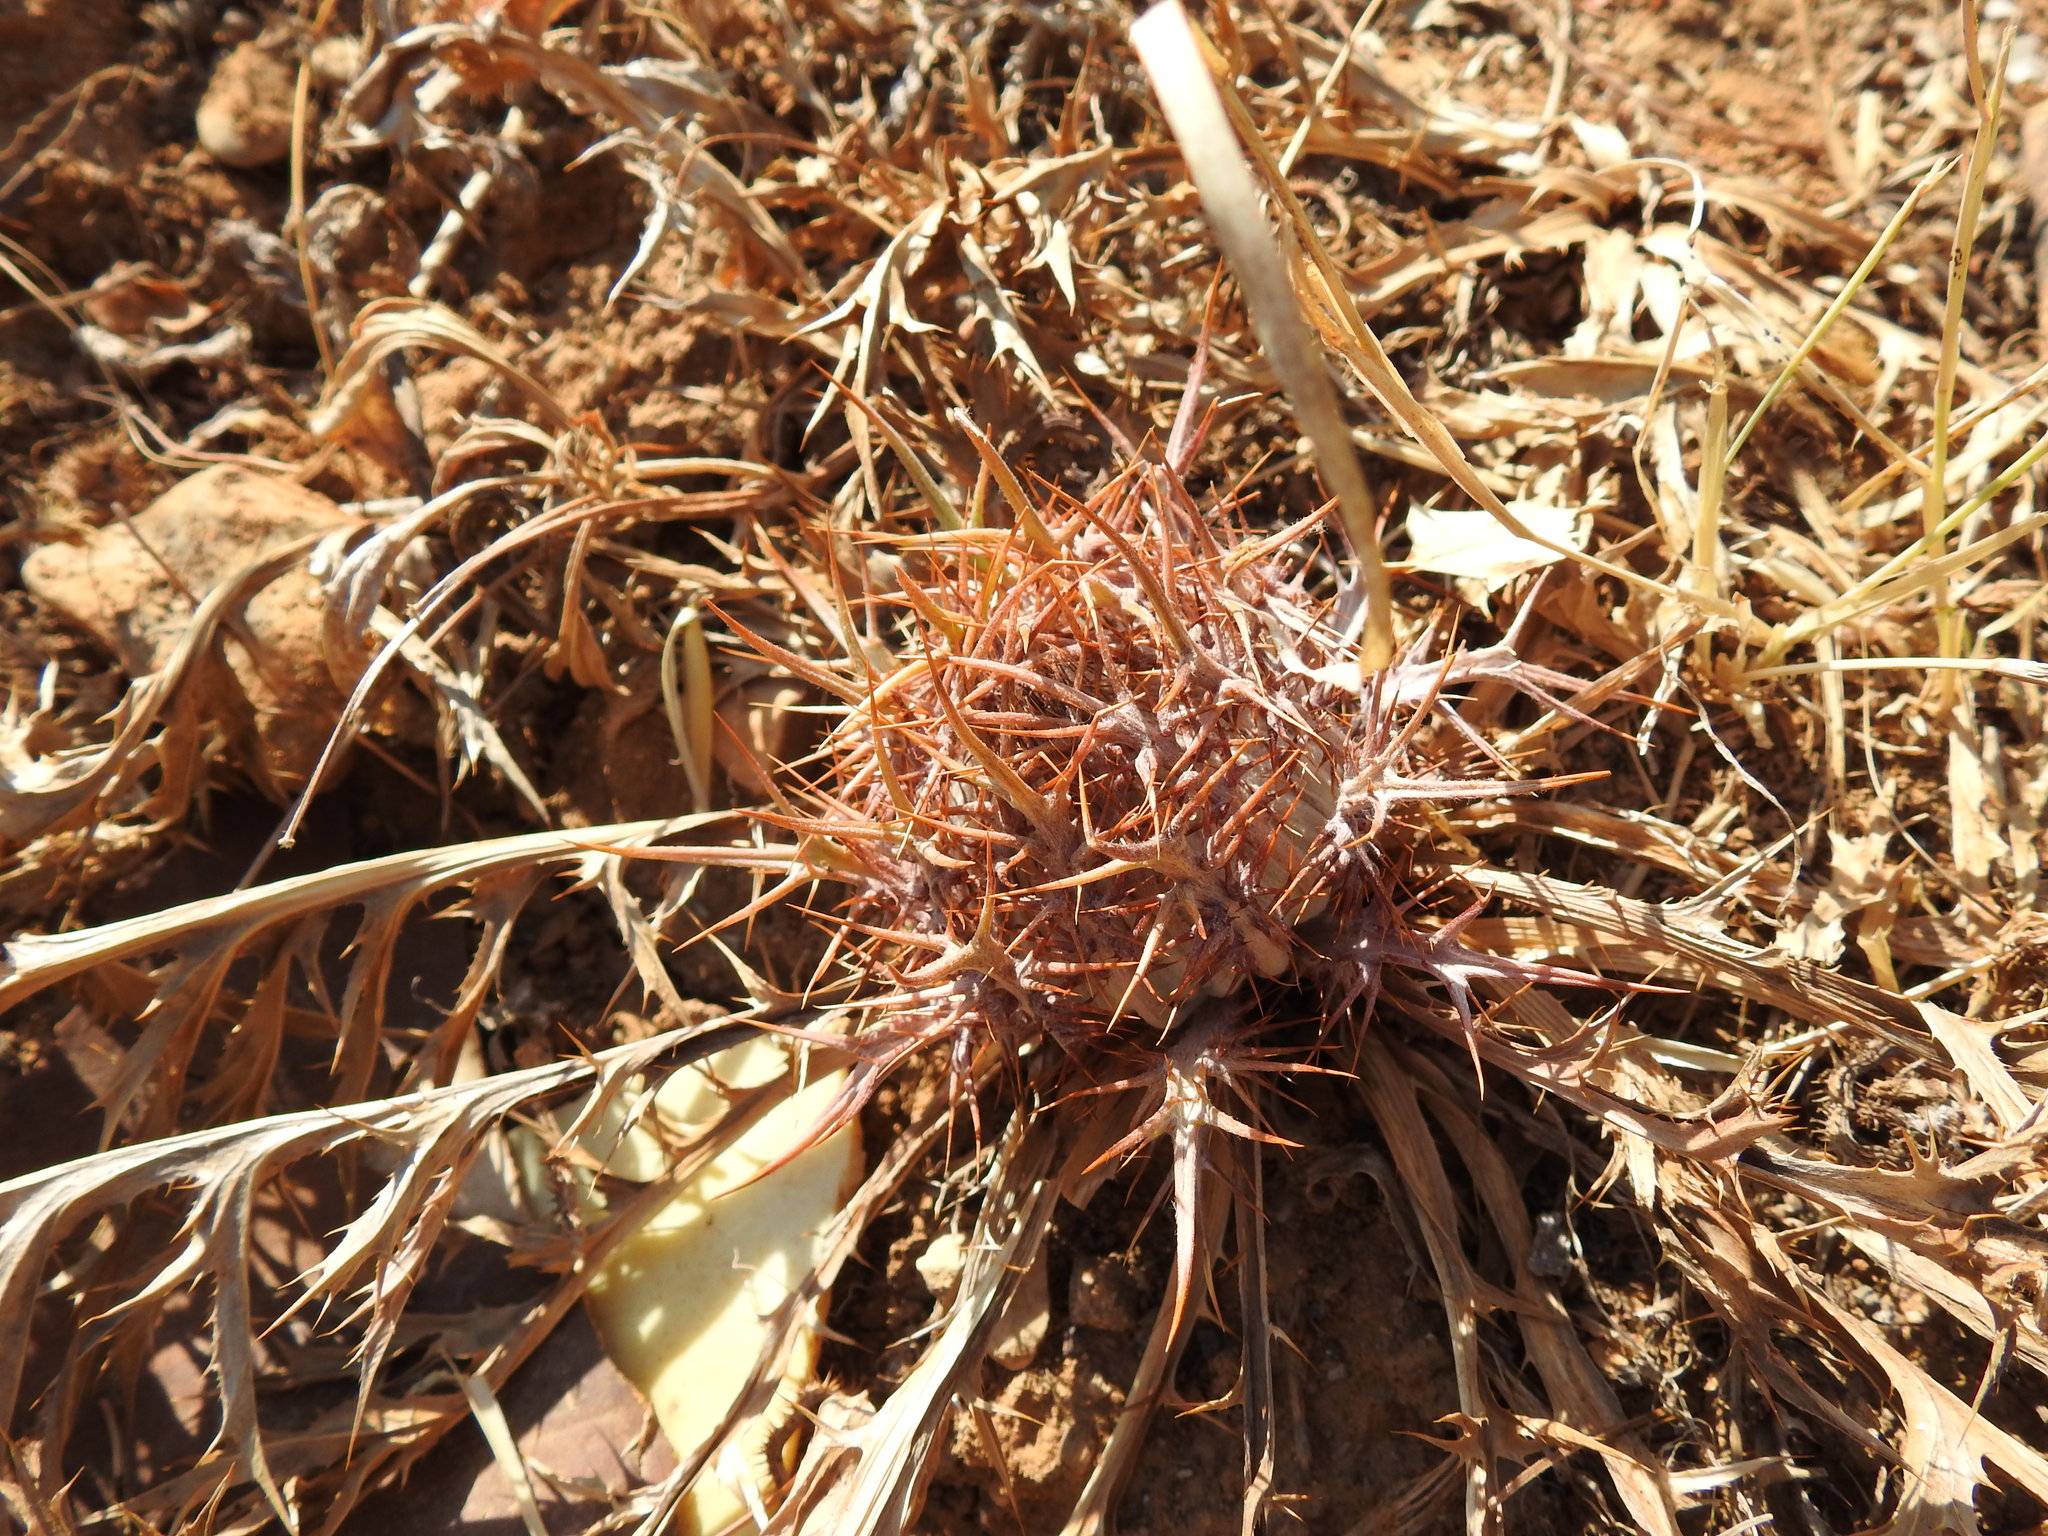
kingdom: Plantae
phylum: Tracheophyta
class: Magnoliopsida
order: Asterales
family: Asteraceae
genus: Chamaeleon
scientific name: Chamaeleon gummifer
